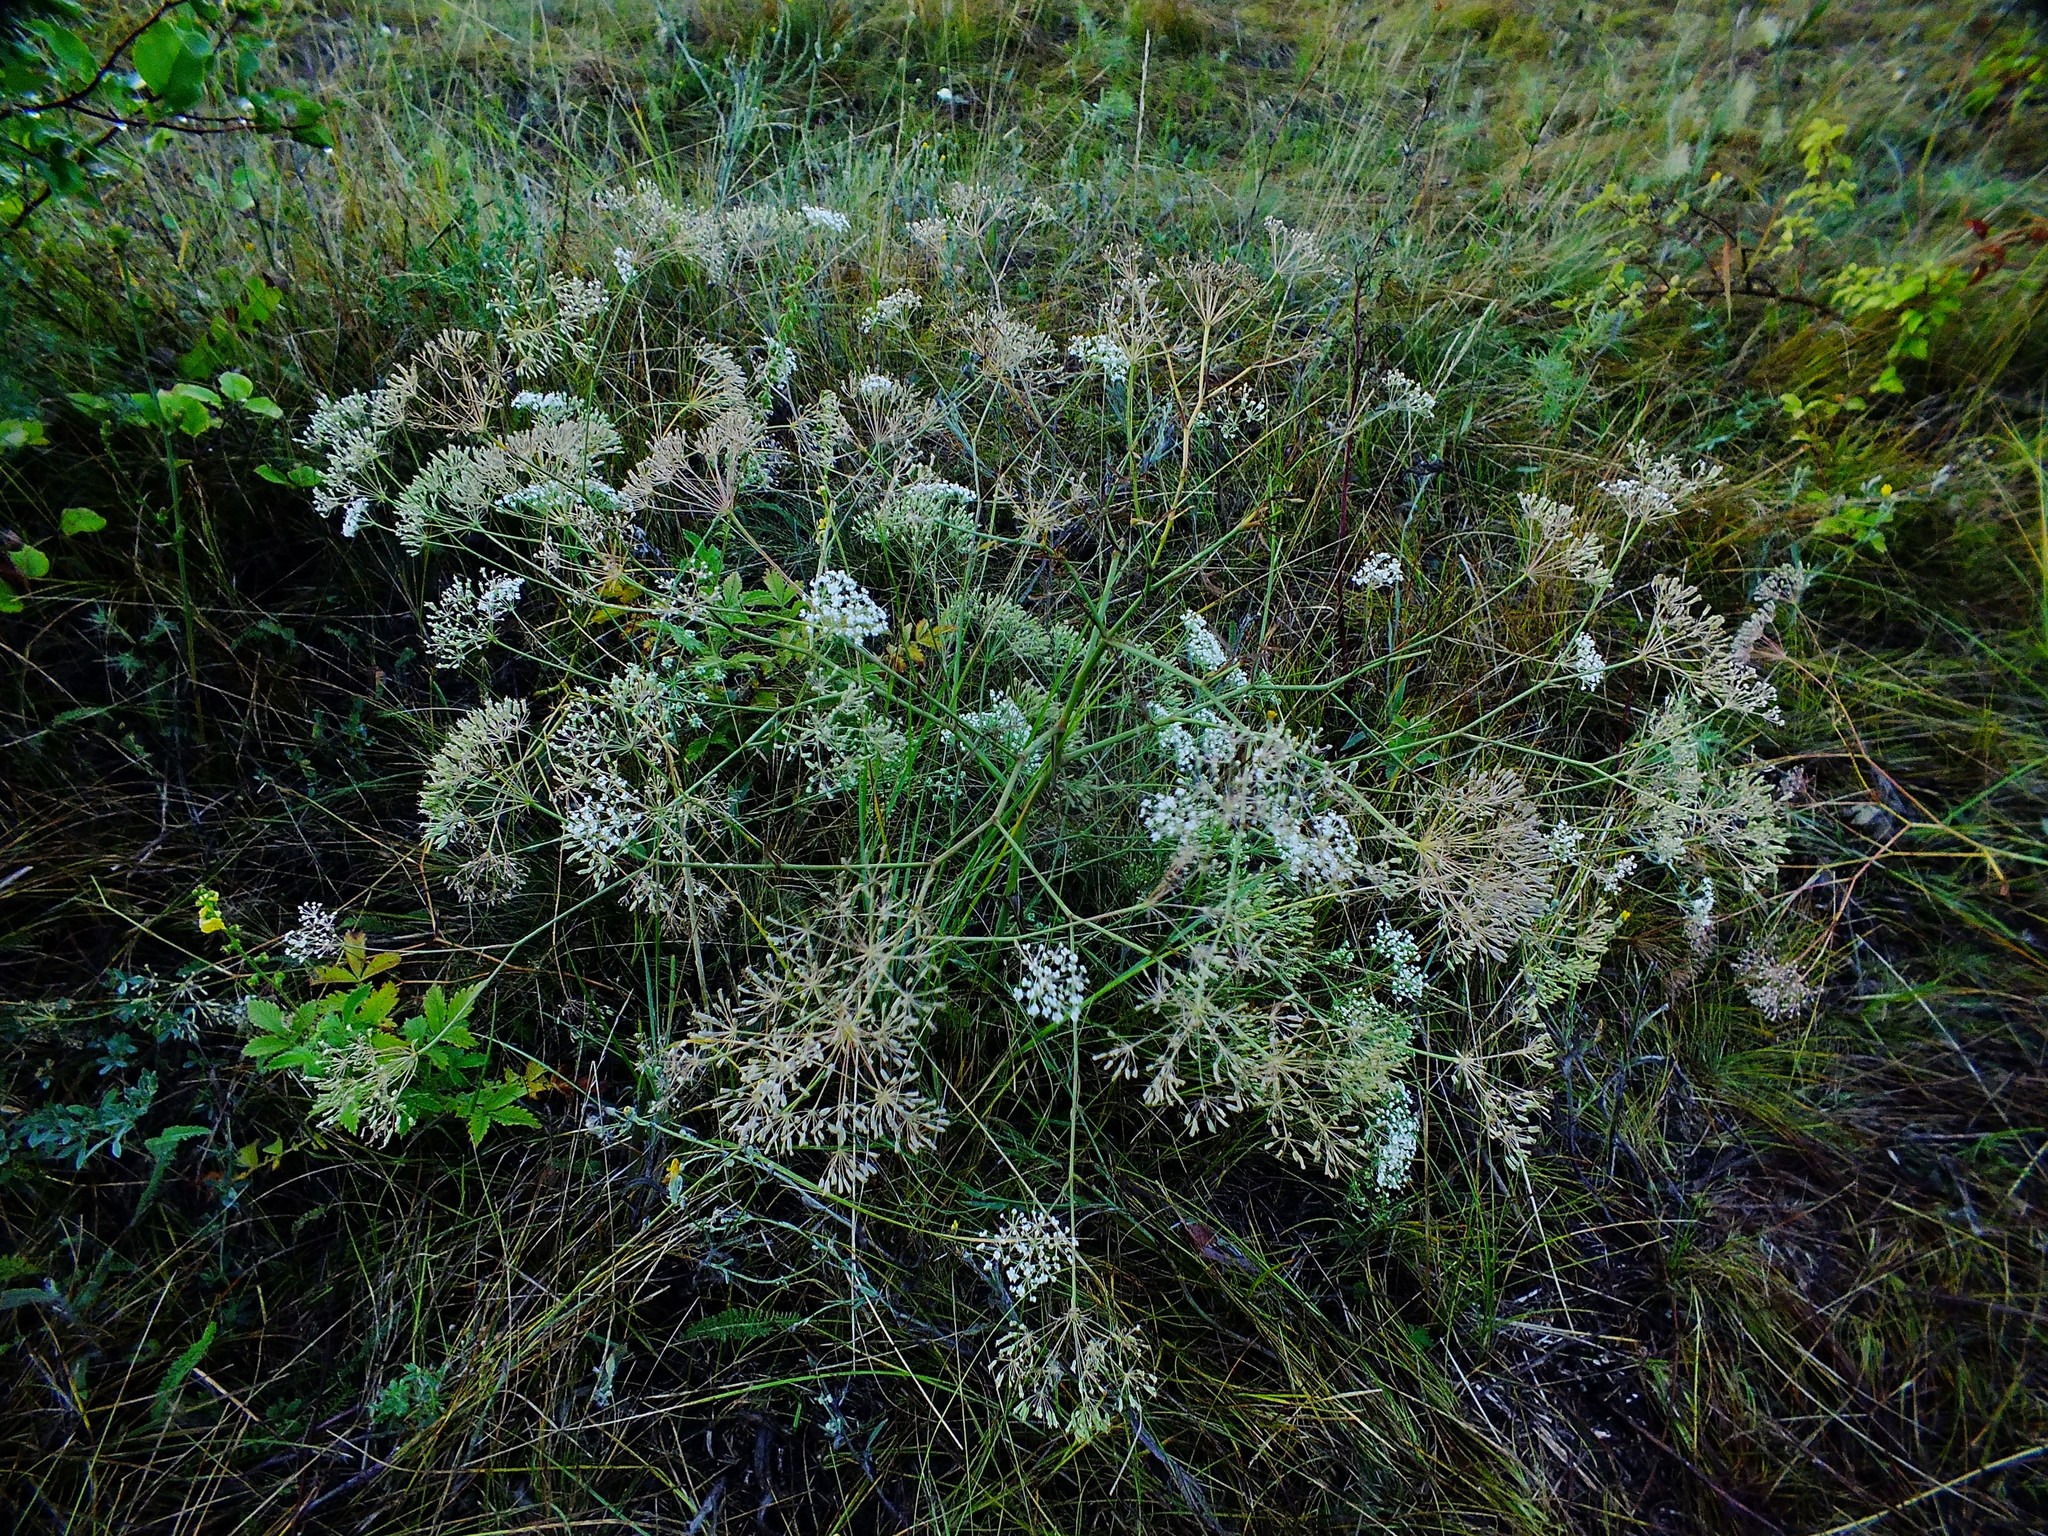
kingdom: Plantae
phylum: Tracheophyta
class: Magnoliopsida
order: Apiales
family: Apiaceae
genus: Falcaria
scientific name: Falcaria vulgaris
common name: Longleaf
